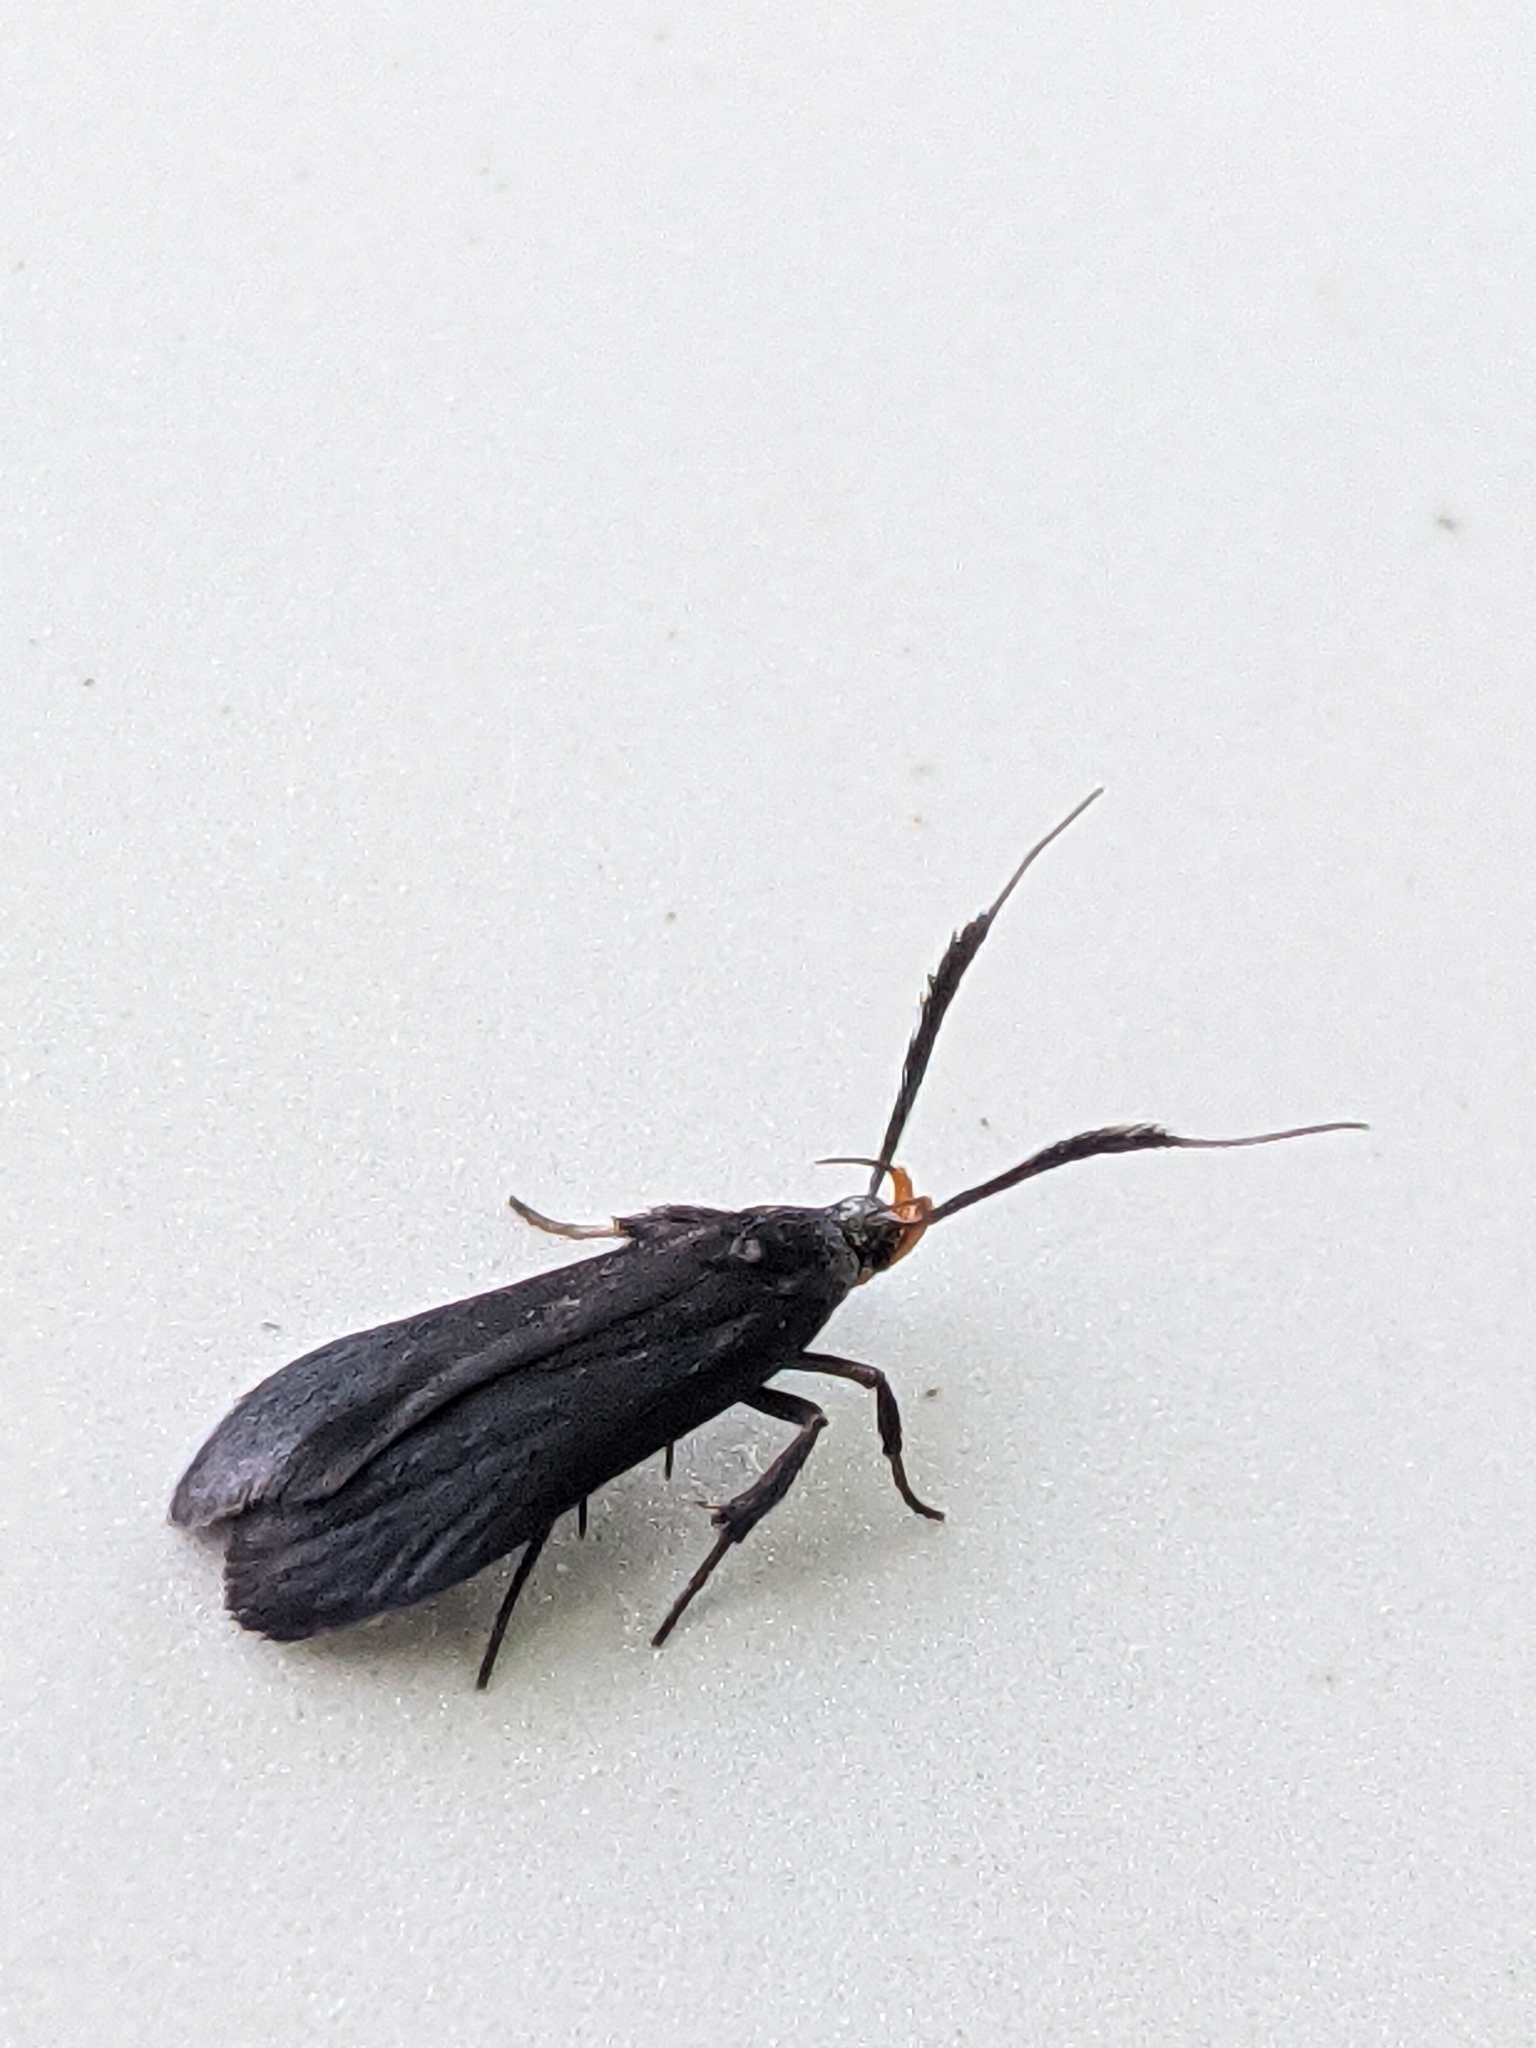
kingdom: Animalia
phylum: Arthropoda
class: Insecta
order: Lepidoptera
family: Gelechiidae
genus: Dichomeris
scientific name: Dichomeris nonstrigella
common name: Little devil moth
